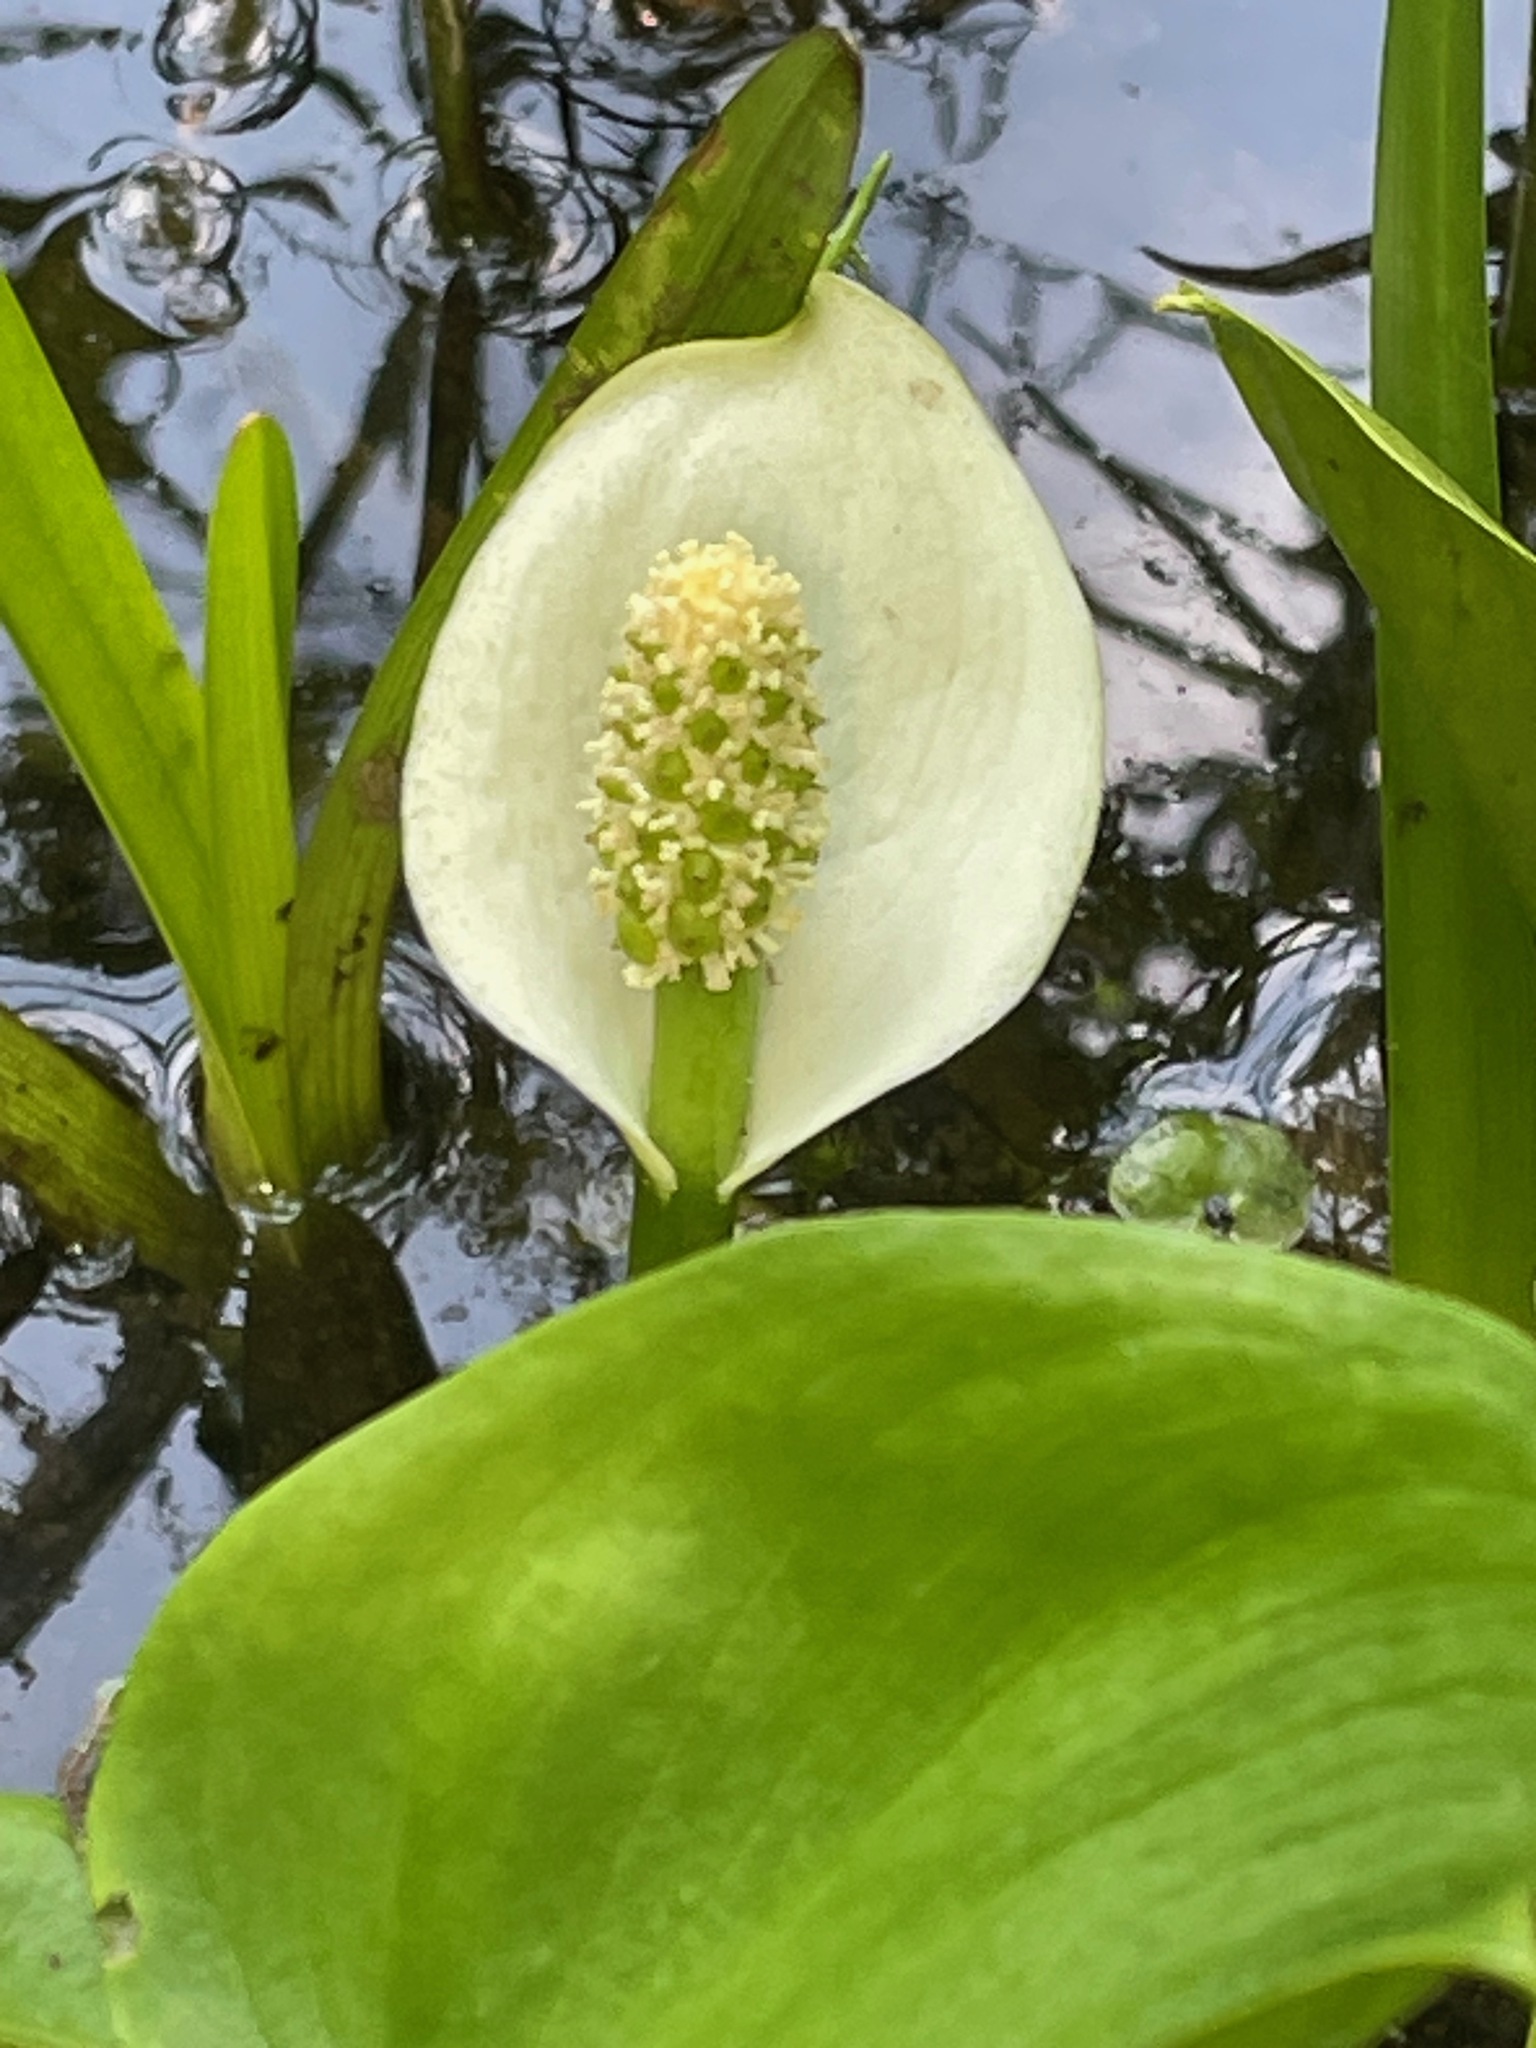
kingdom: Plantae
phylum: Tracheophyta
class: Liliopsida
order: Alismatales
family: Araceae
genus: Calla
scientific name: Calla palustris
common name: Bog arum
